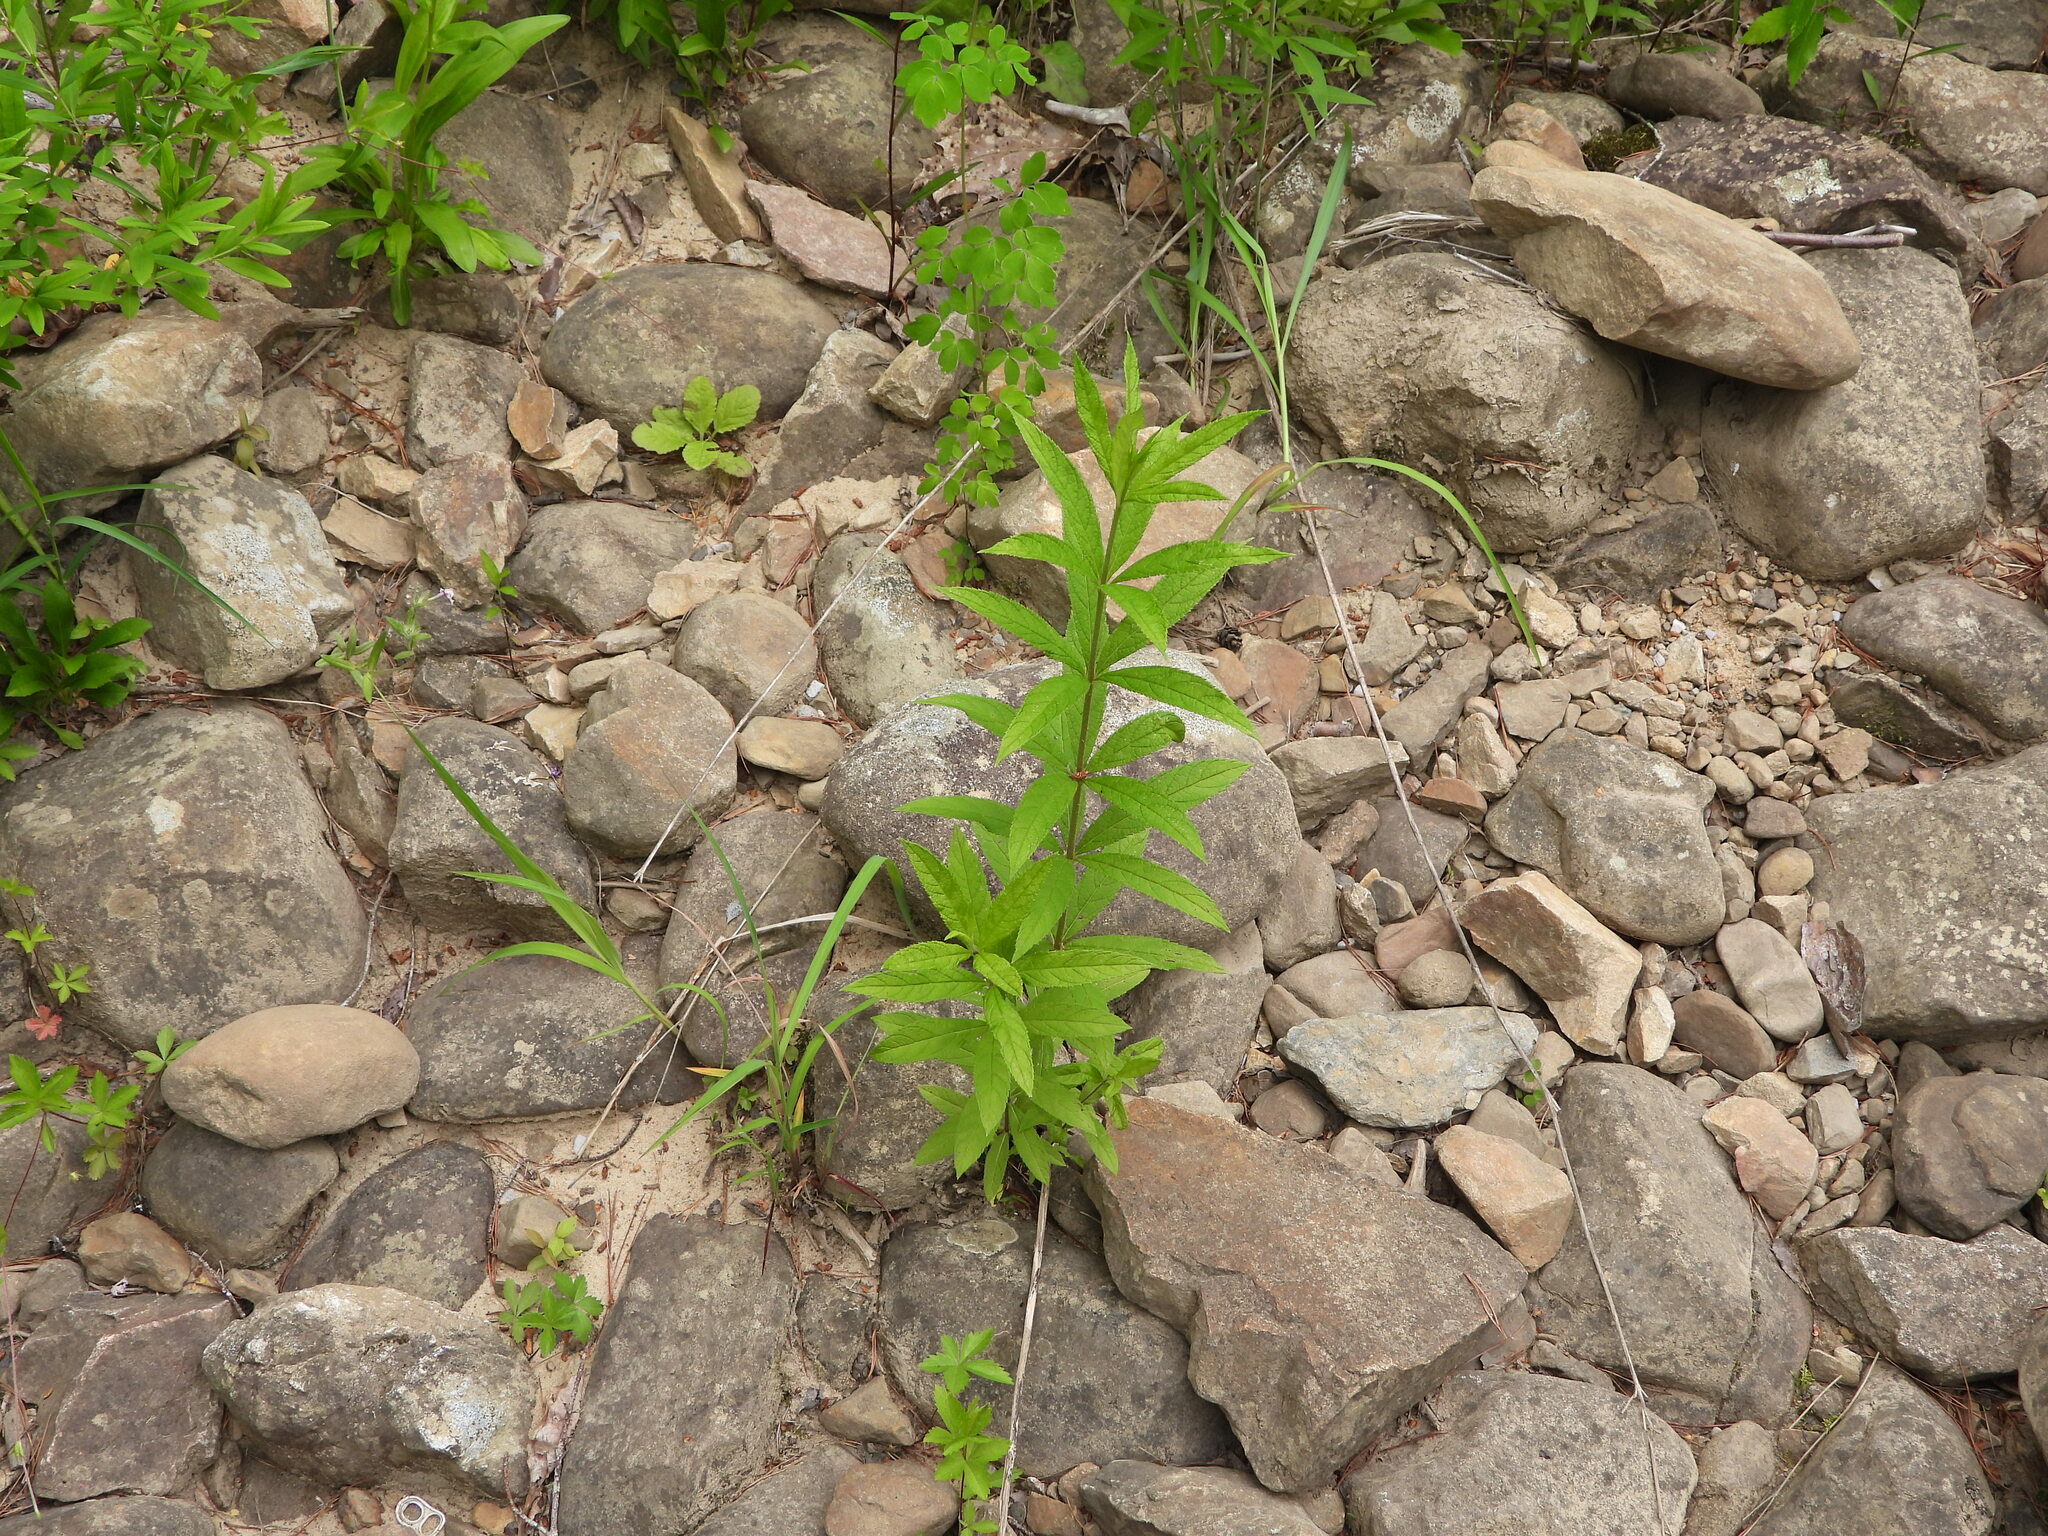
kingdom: Plantae
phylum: Tracheophyta
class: Magnoliopsida
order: Lamiales
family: Plantaginaceae
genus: Veronicastrum
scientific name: Veronicastrum virginicum
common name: Blackroot
